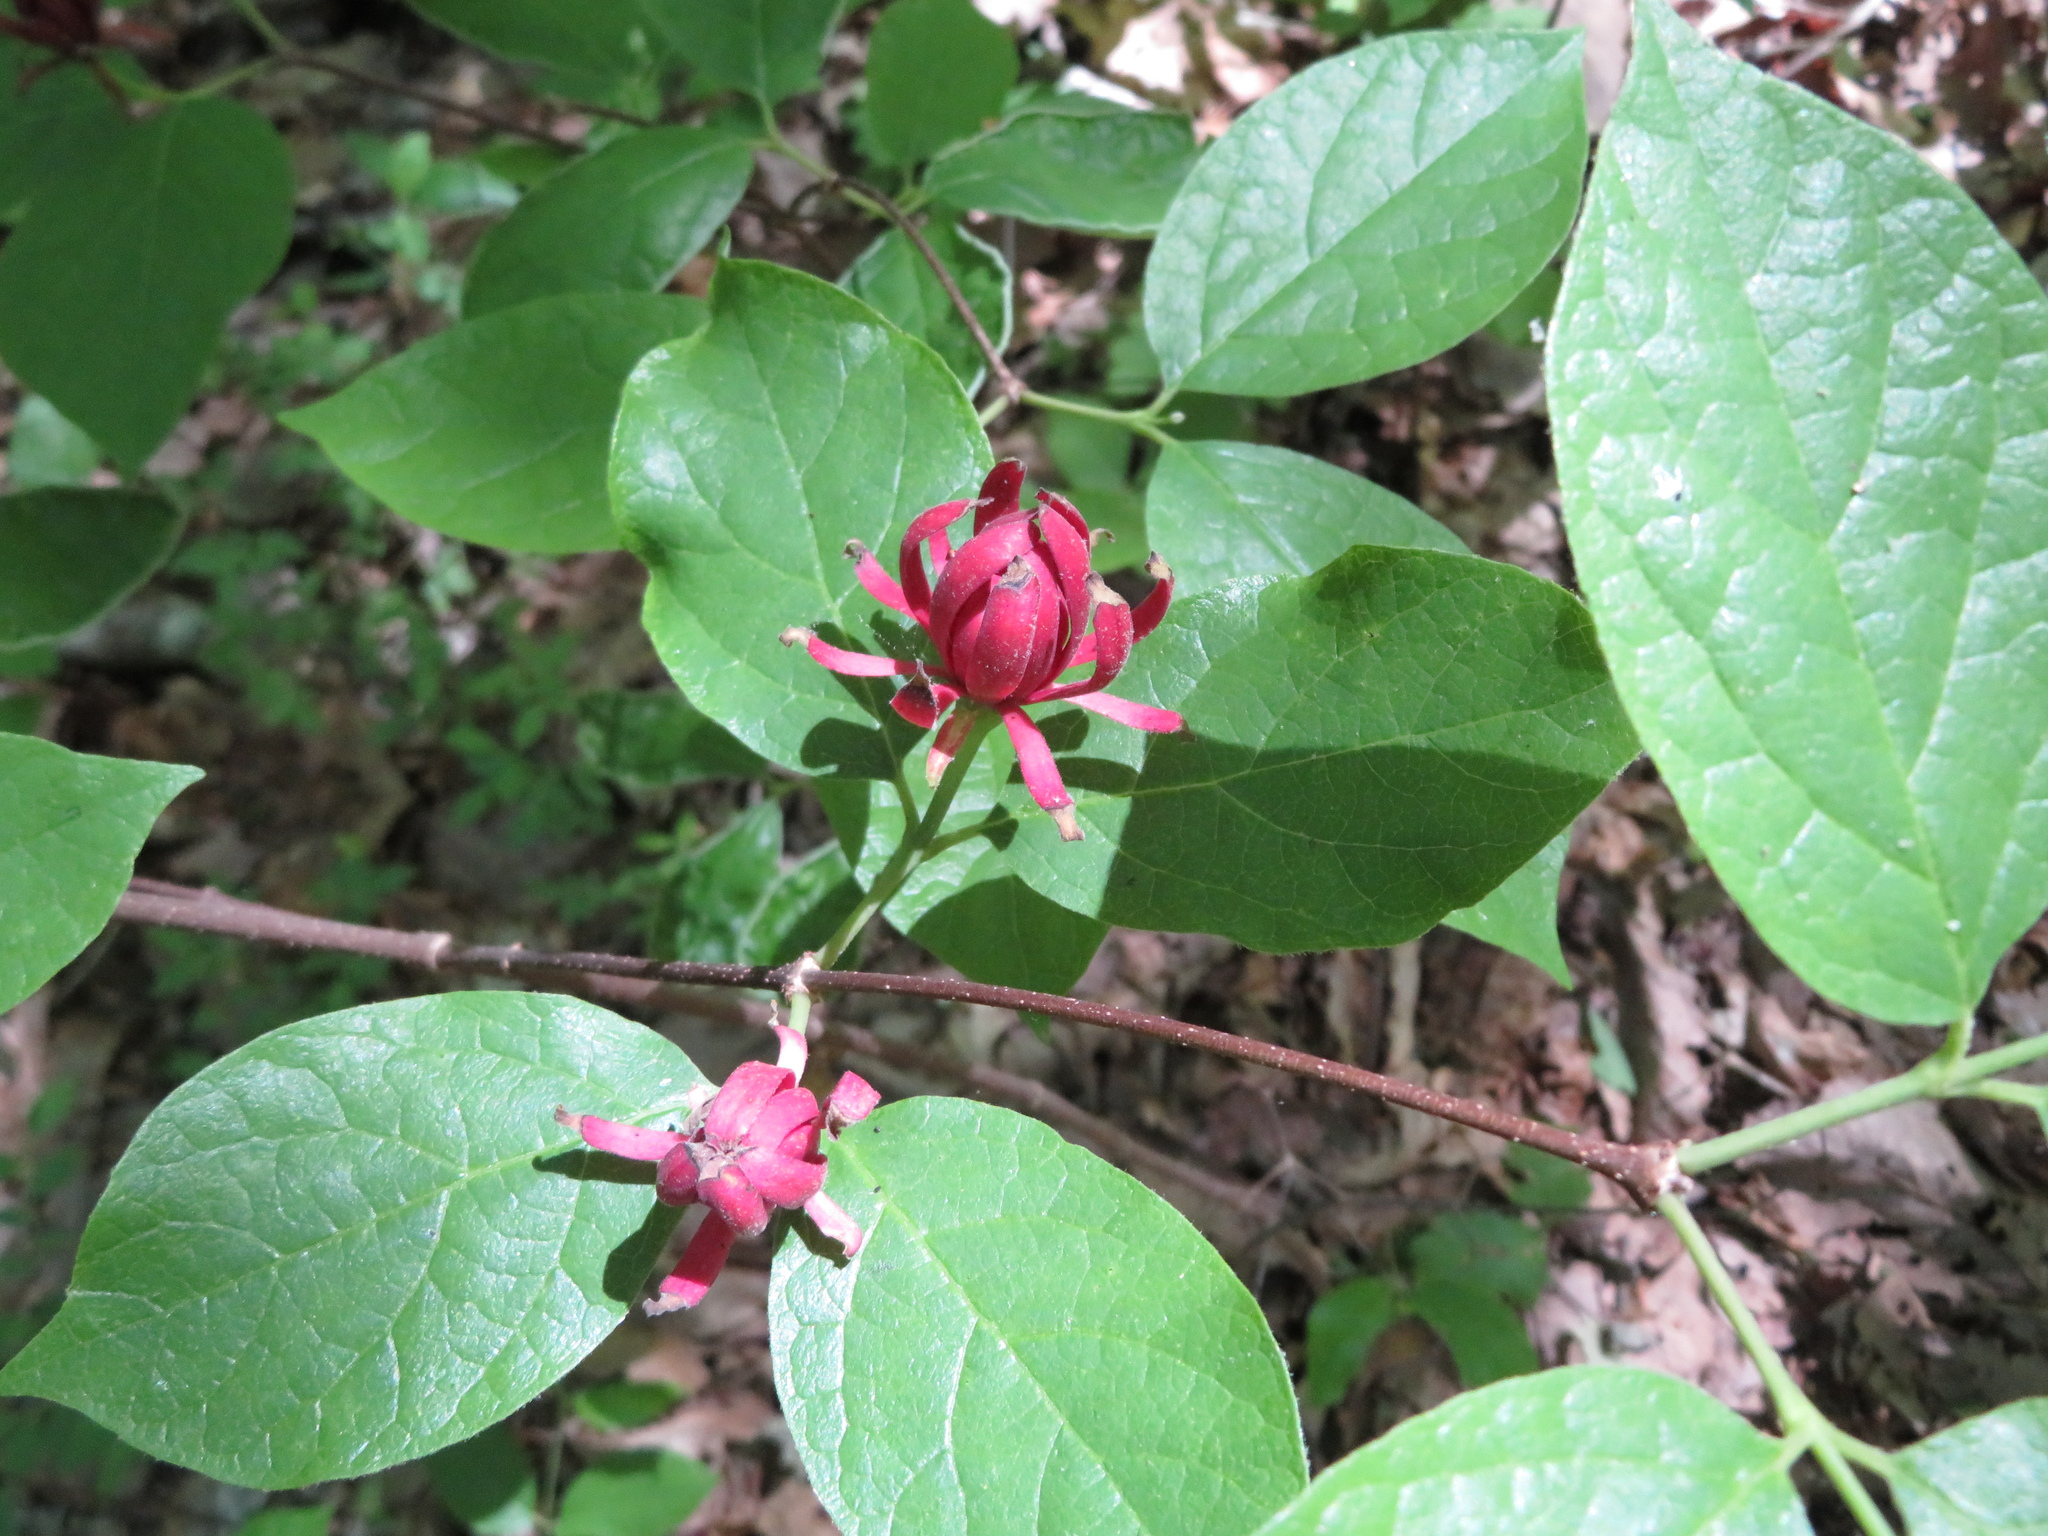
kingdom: Plantae
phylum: Tracheophyta
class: Magnoliopsida
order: Laurales
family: Calycanthaceae
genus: Calycanthus
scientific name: Calycanthus floridus
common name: Carolina-allspice
